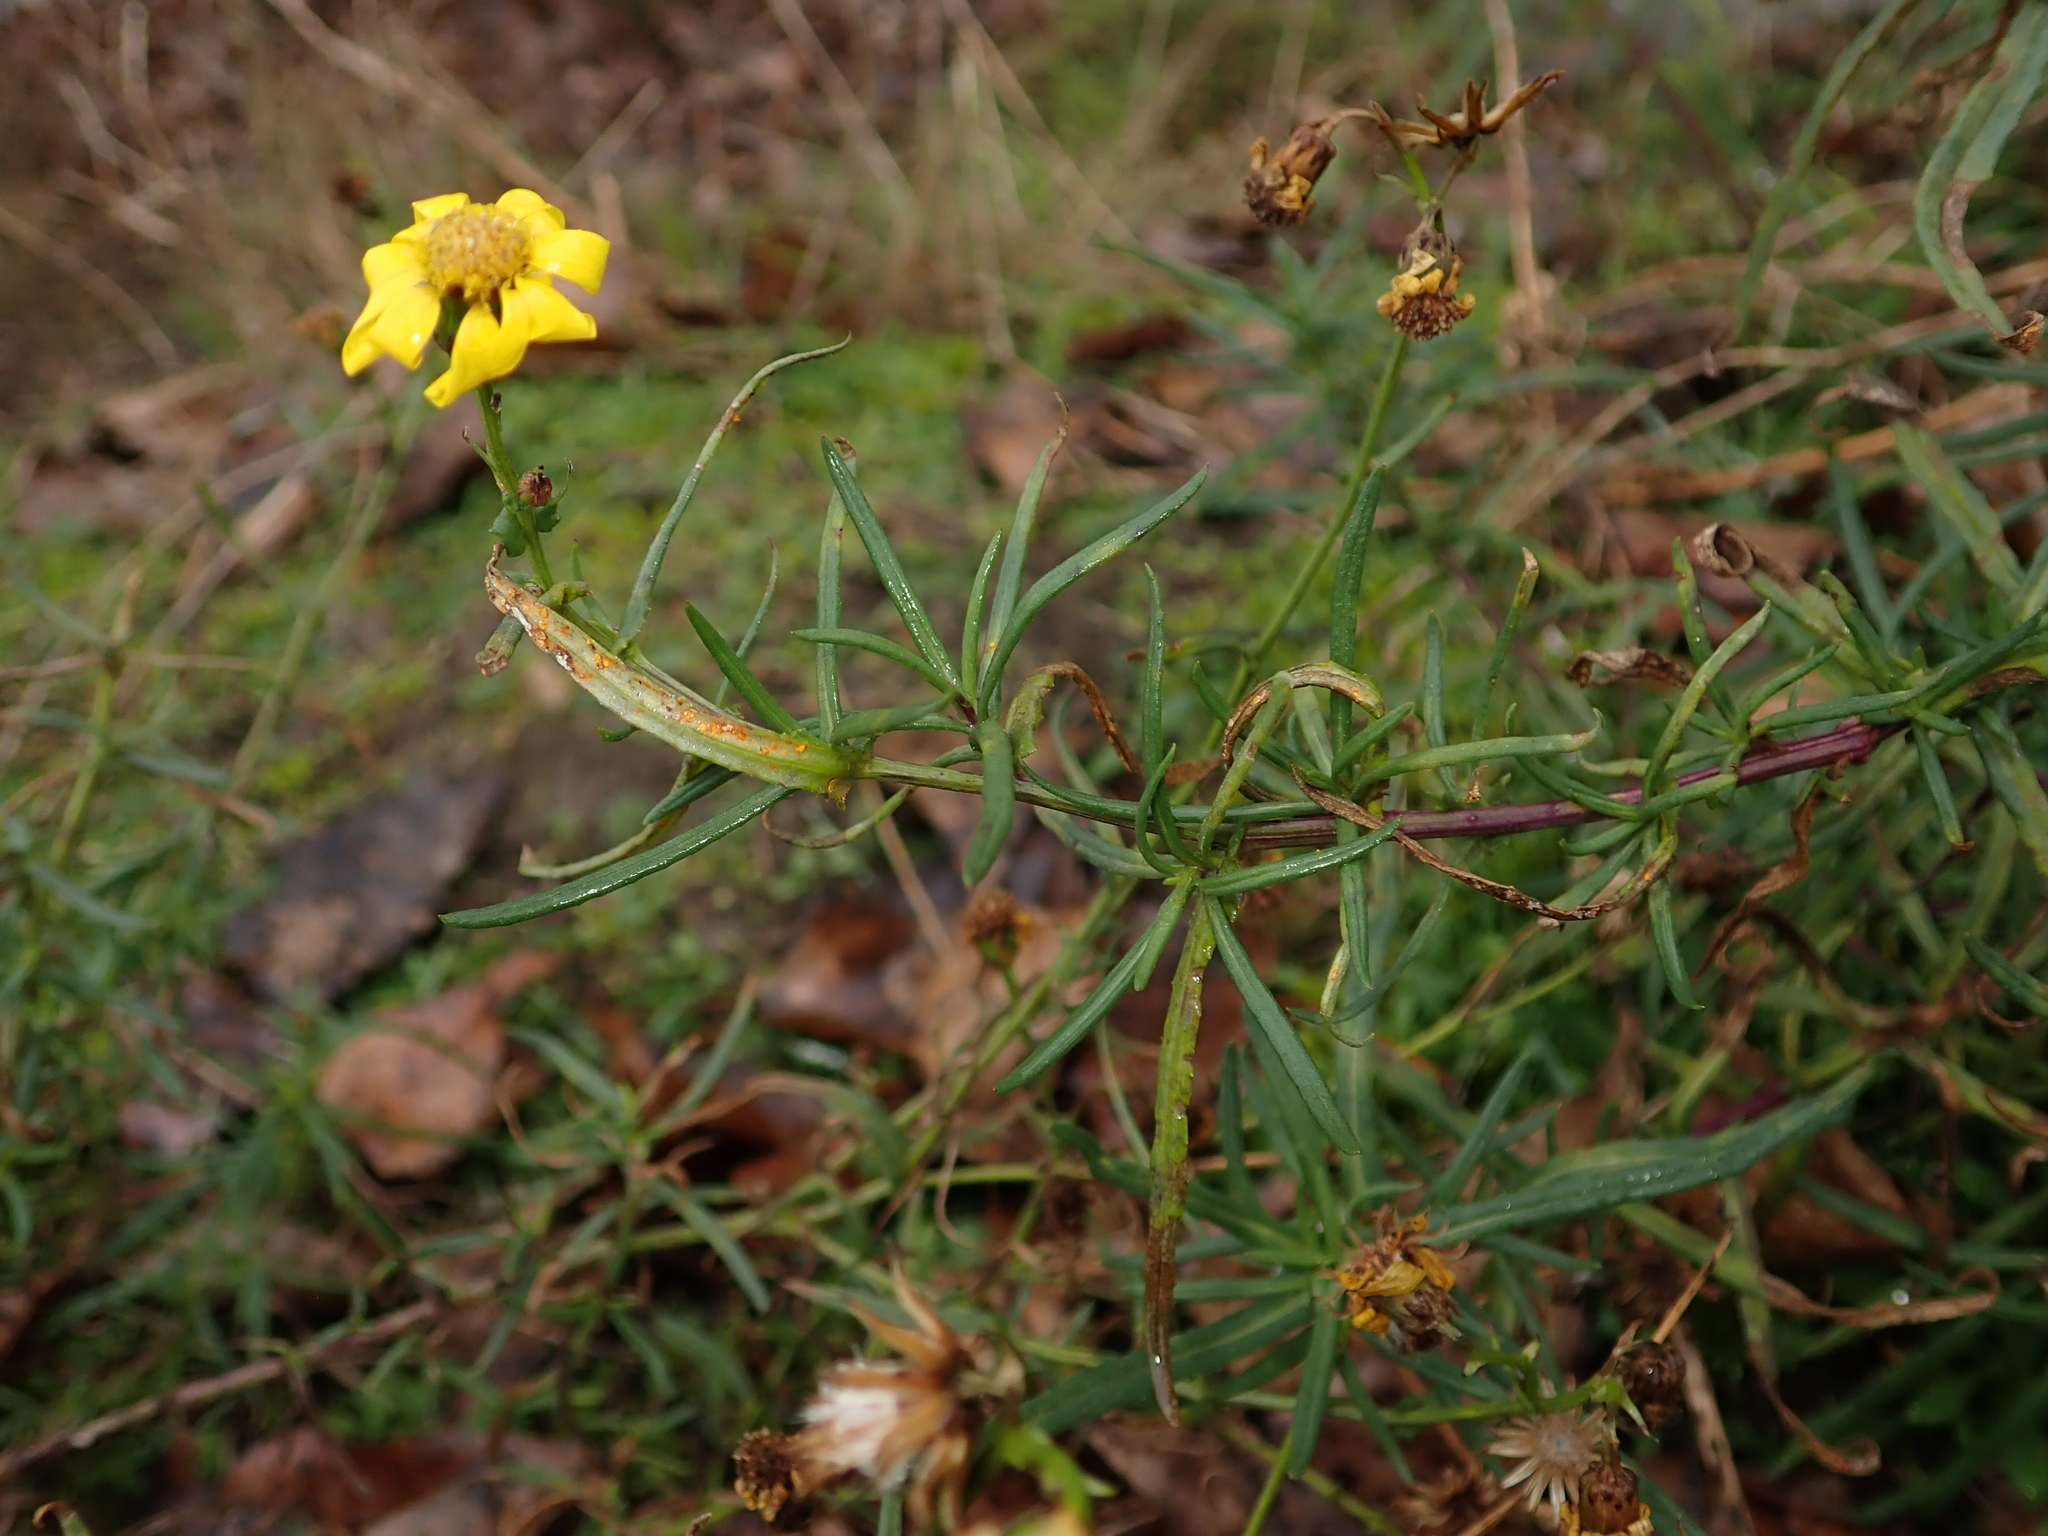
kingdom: Plantae
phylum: Tracheophyta
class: Magnoliopsida
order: Asterales
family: Asteraceae
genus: Senecio
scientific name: Senecio inaequidens
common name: Narrow-leaved ragwort
